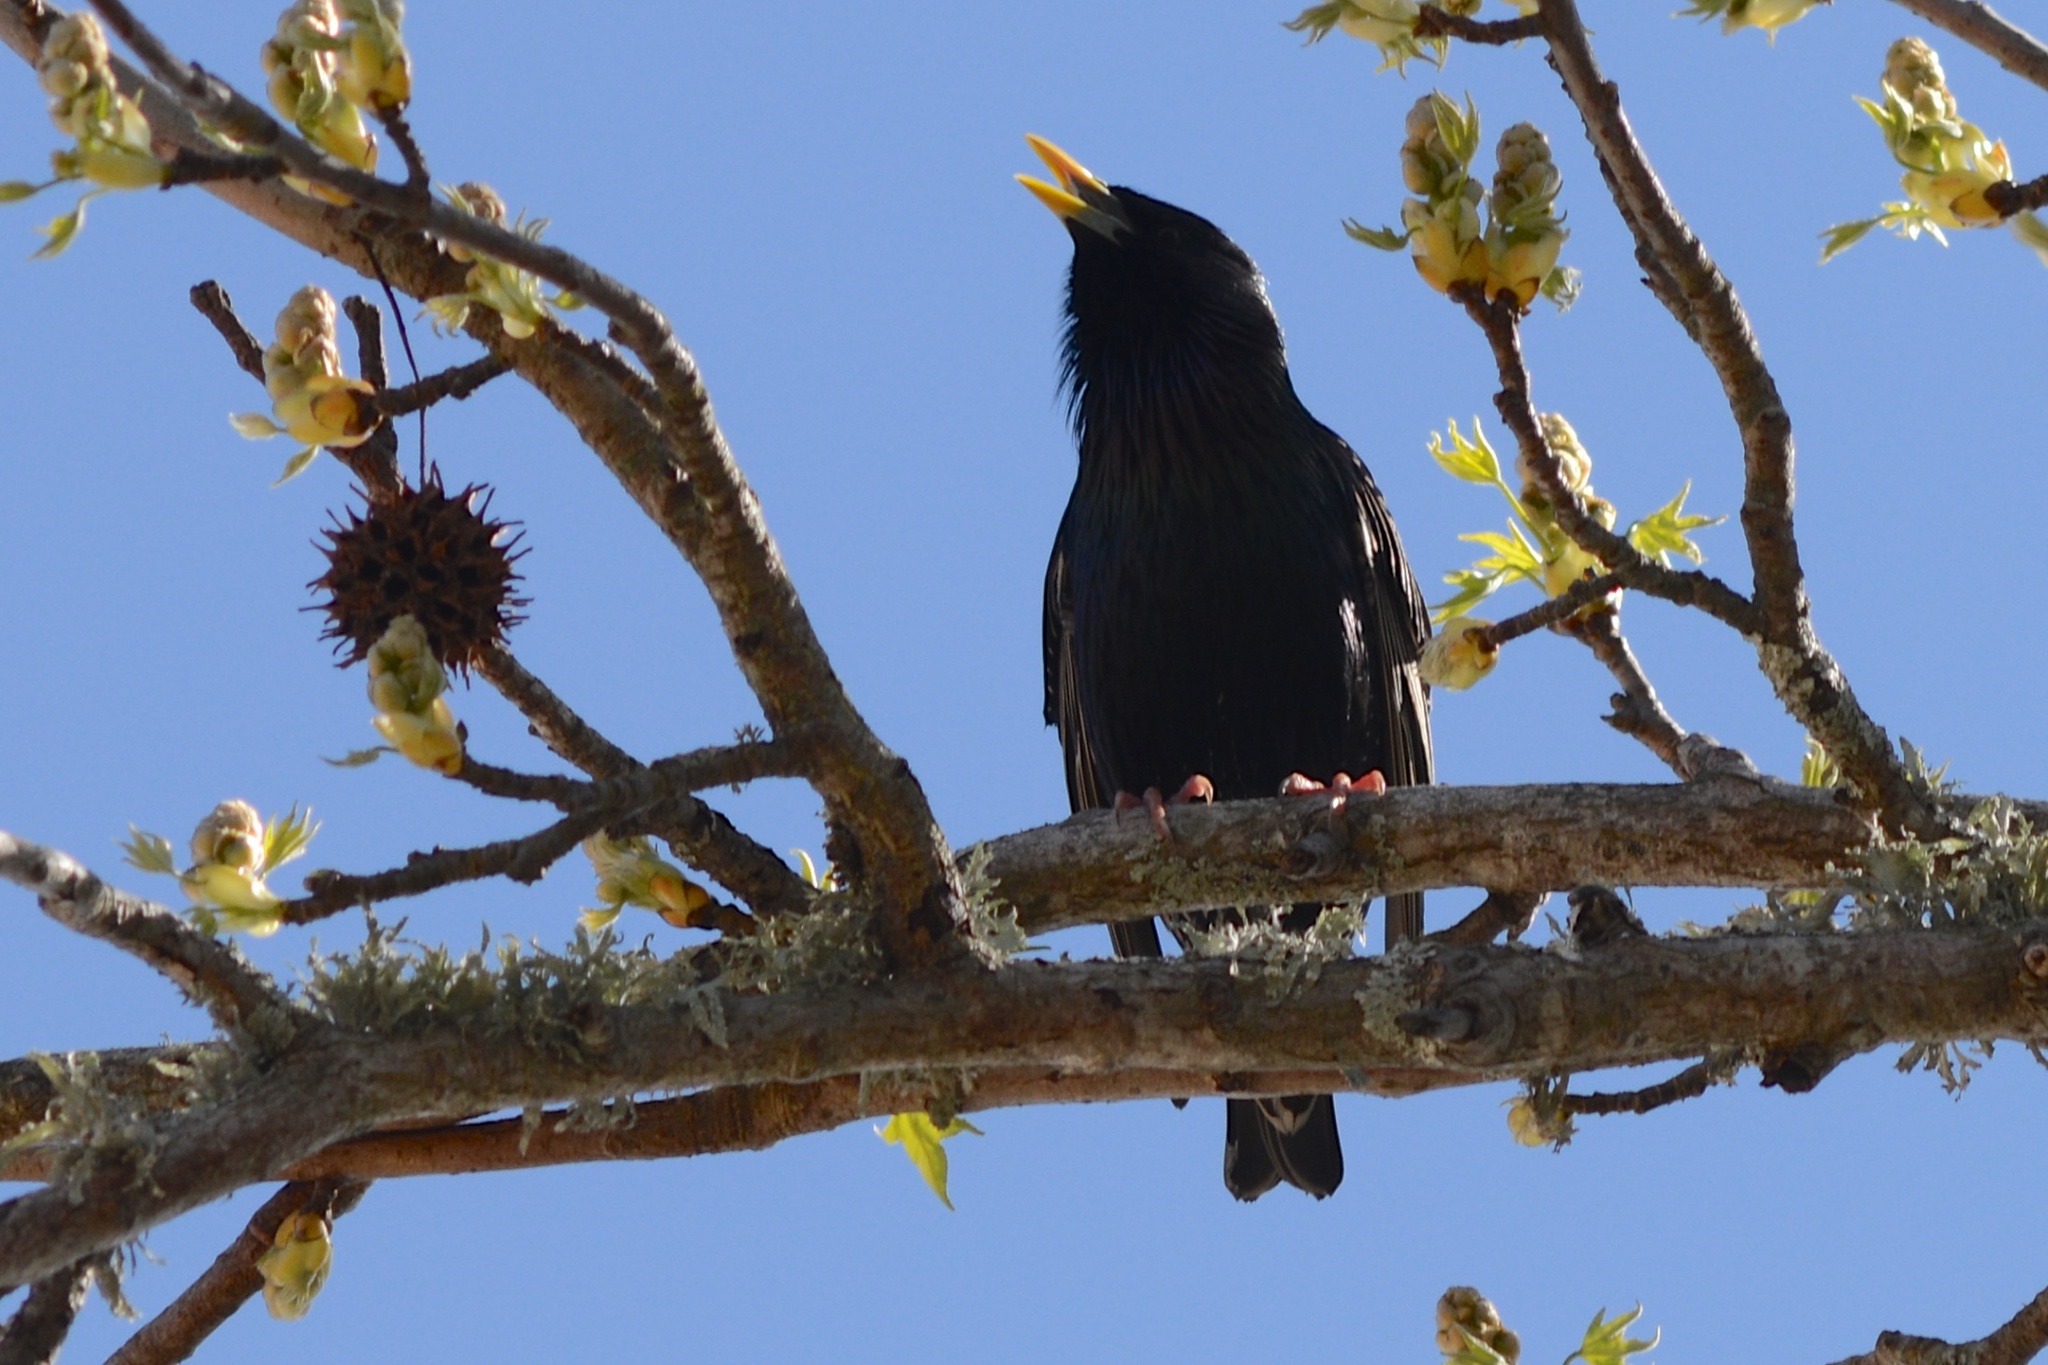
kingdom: Animalia
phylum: Chordata
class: Aves
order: Passeriformes
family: Sturnidae
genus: Sturnus
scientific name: Sturnus vulgaris
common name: Common starling
